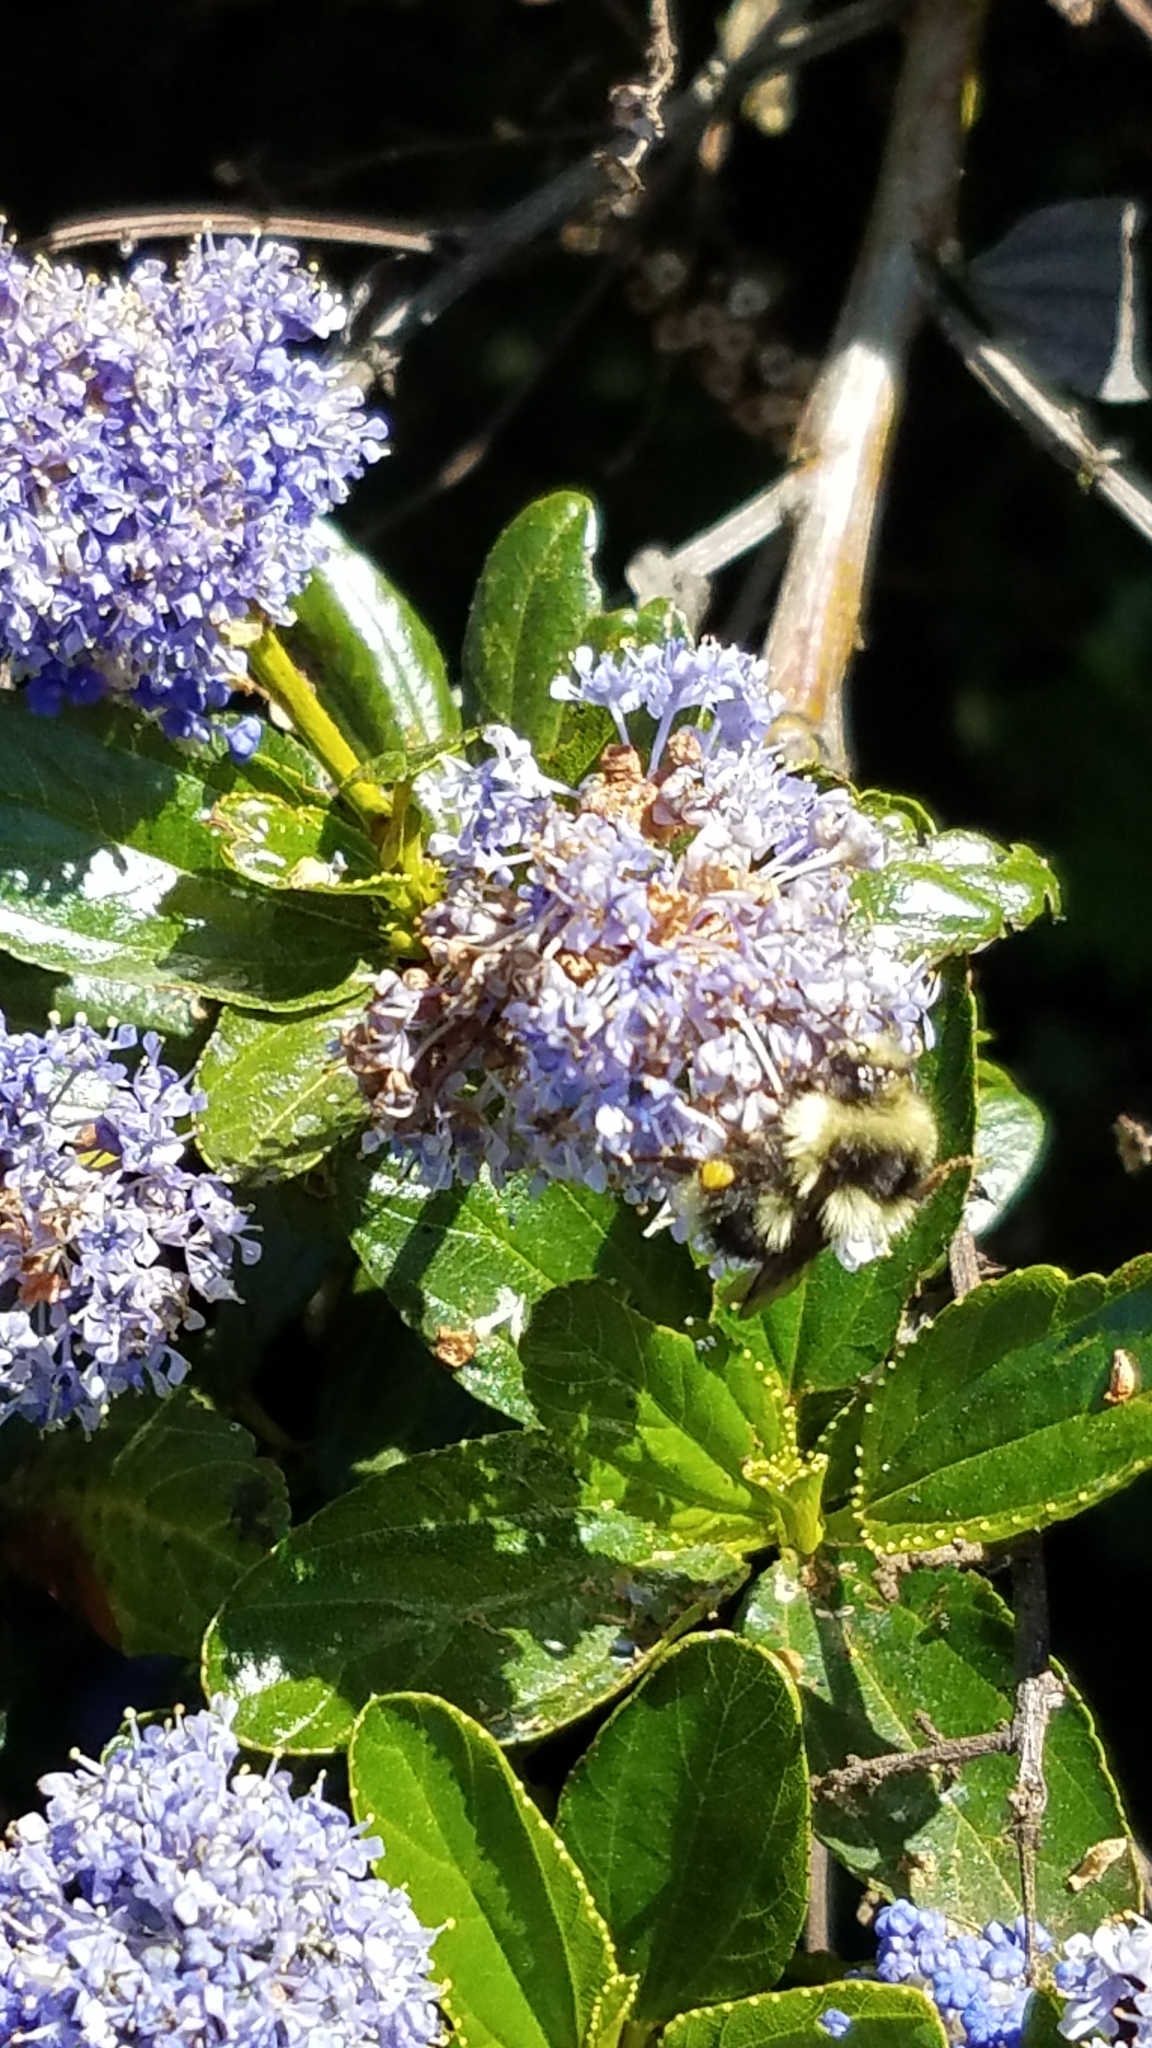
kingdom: Animalia
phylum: Arthropoda
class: Insecta
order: Hymenoptera
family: Apidae
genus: Bombus
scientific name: Bombus melanopygus
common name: Black tail bumble bee
